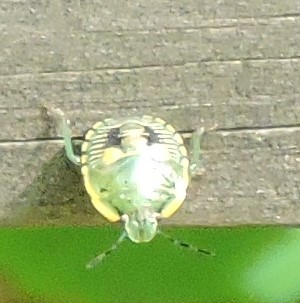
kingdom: Animalia
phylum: Arthropoda
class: Insecta
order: Hemiptera
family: Pentatomidae
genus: Chinavia
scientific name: Chinavia hilaris
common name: Green stink bug
